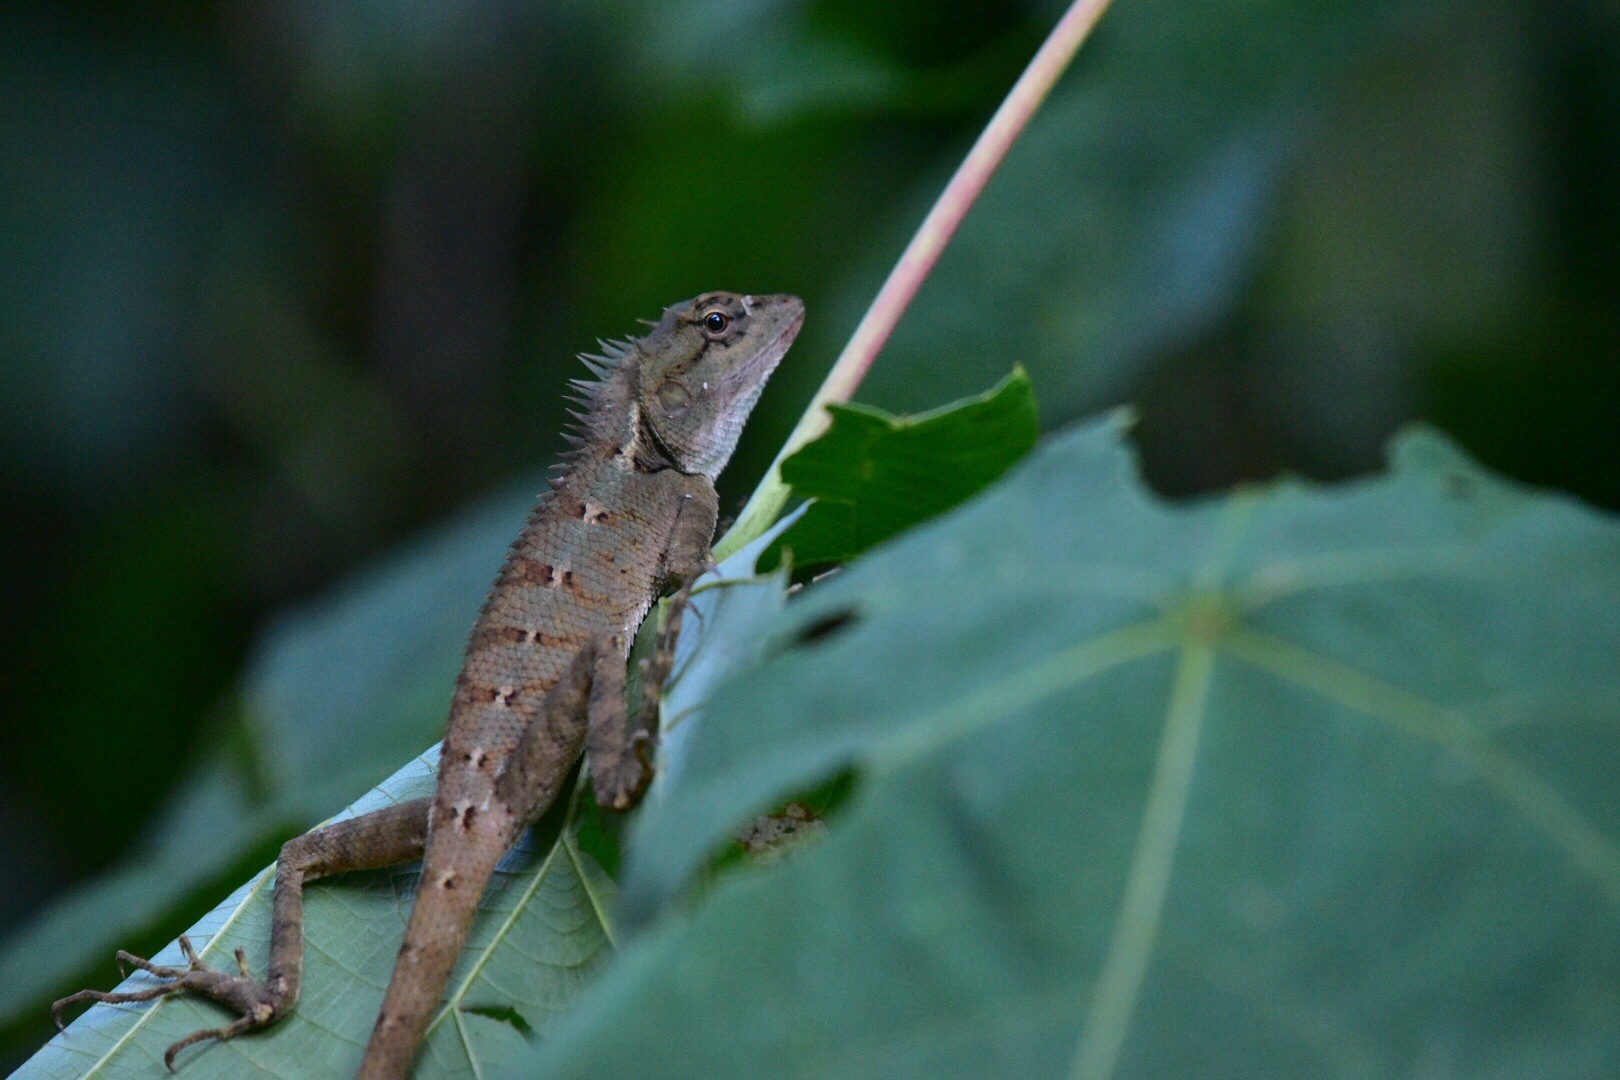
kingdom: Animalia
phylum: Chordata
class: Squamata
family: Agamidae
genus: Calotes
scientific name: Calotes emma
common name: Thailand bloodsucker
